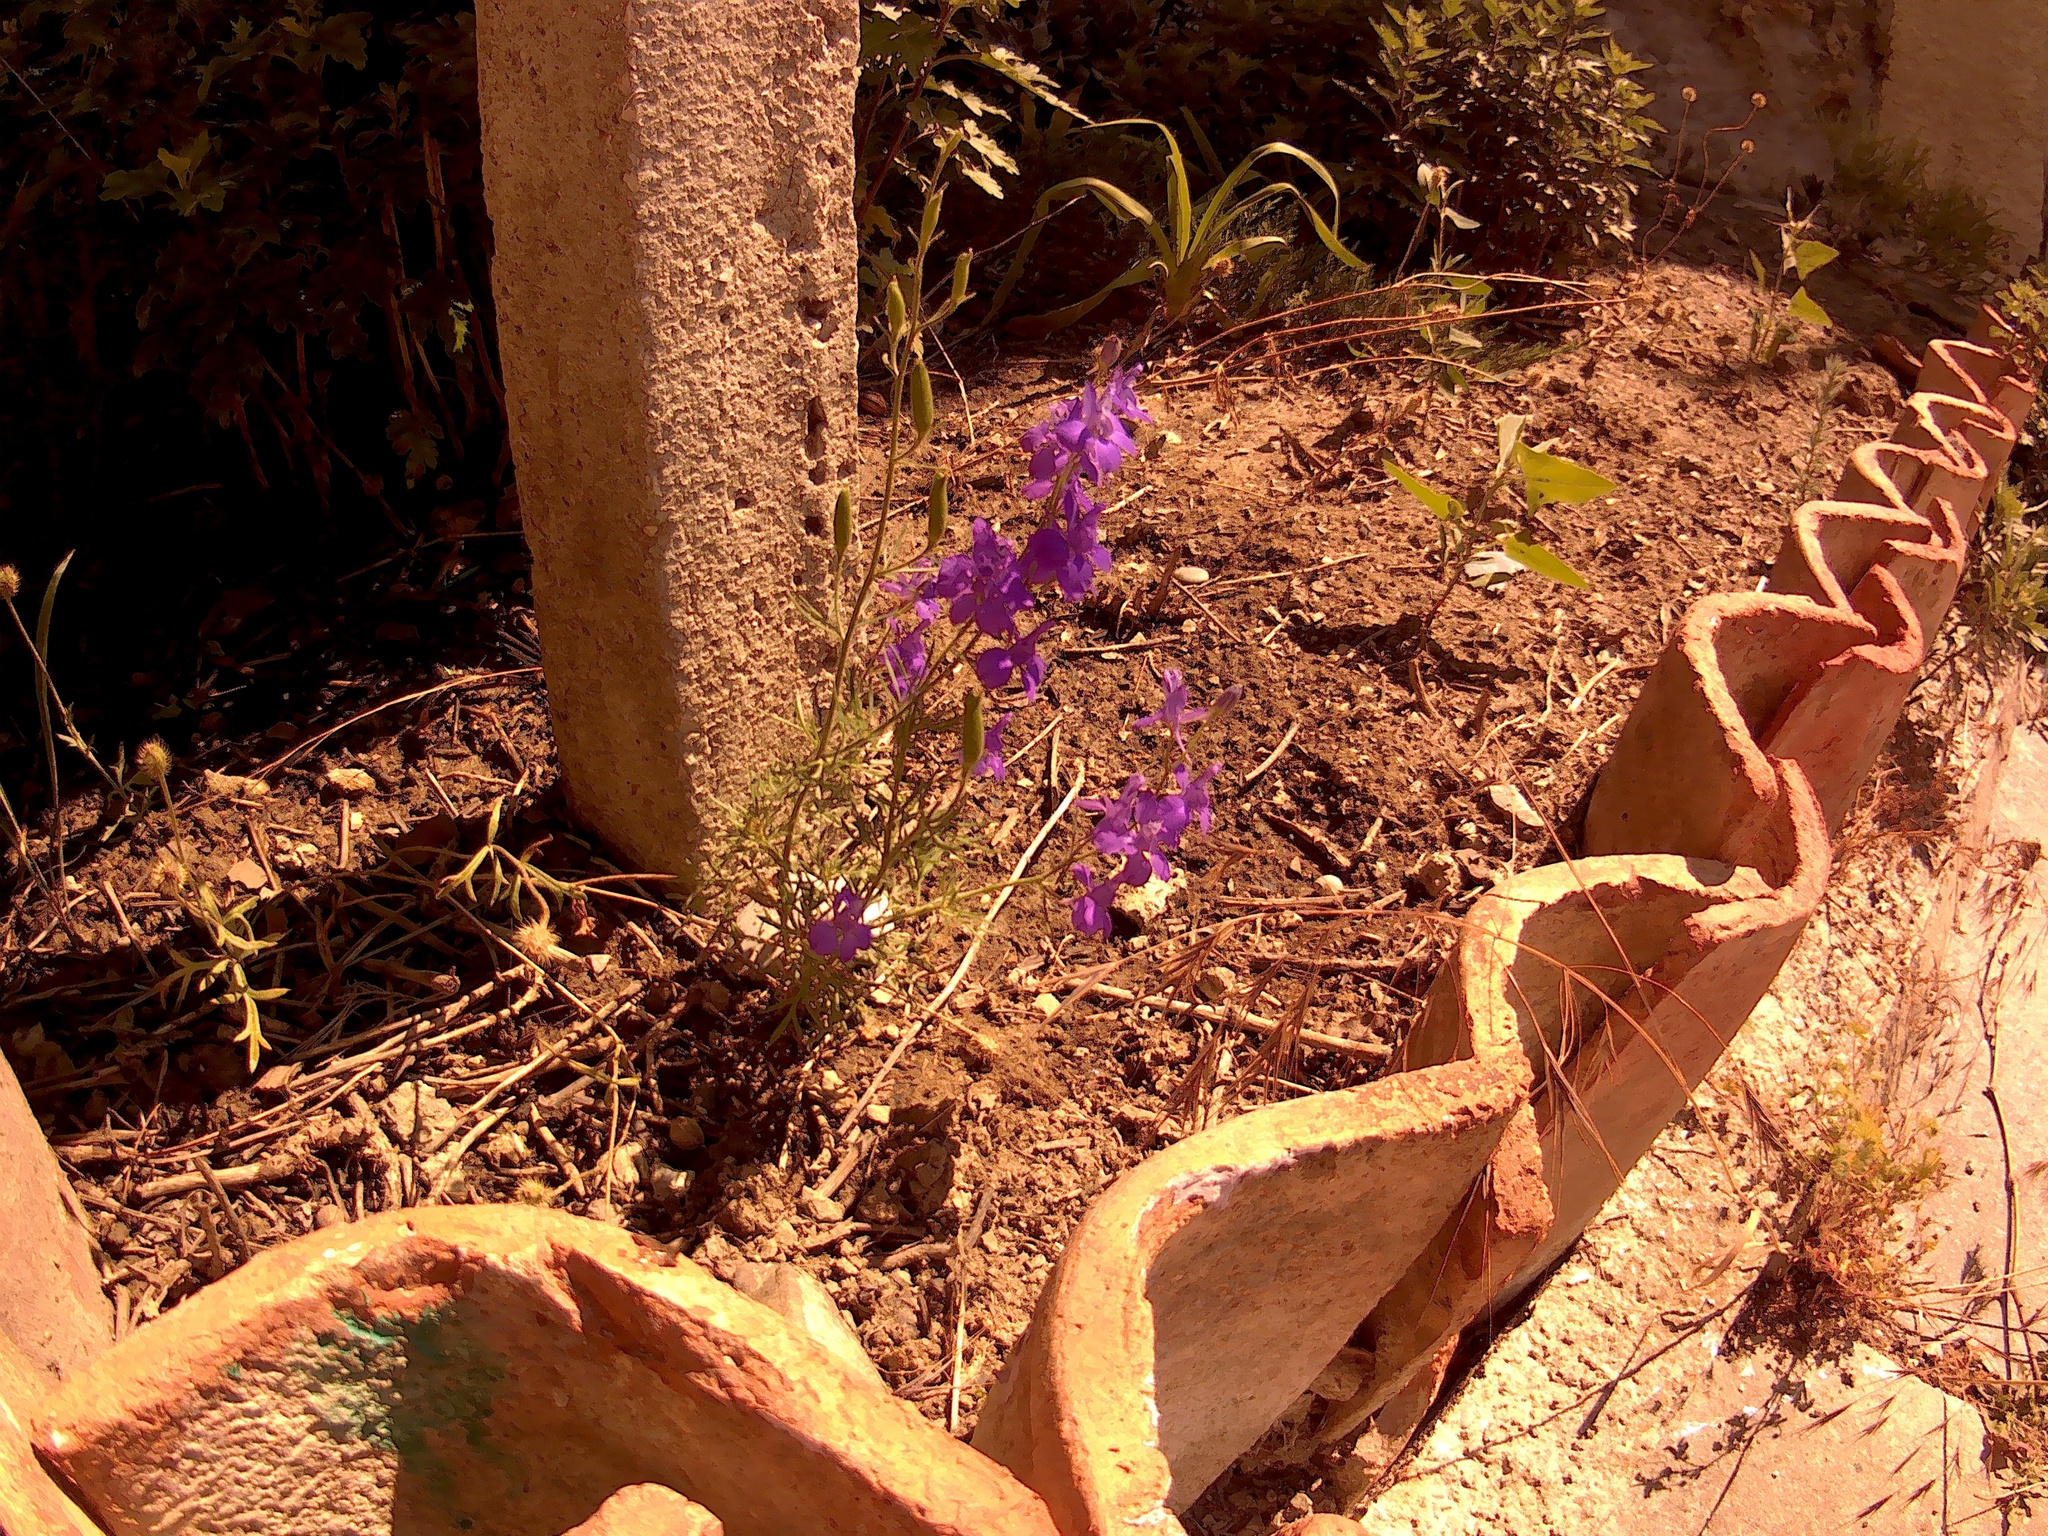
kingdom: Plantae
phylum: Tracheophyta
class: Magnoliopsida
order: Ranunculales
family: Ranunculaceae
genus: Delphinium
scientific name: Delphinium ajacis
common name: Doubtful knight's-spur
